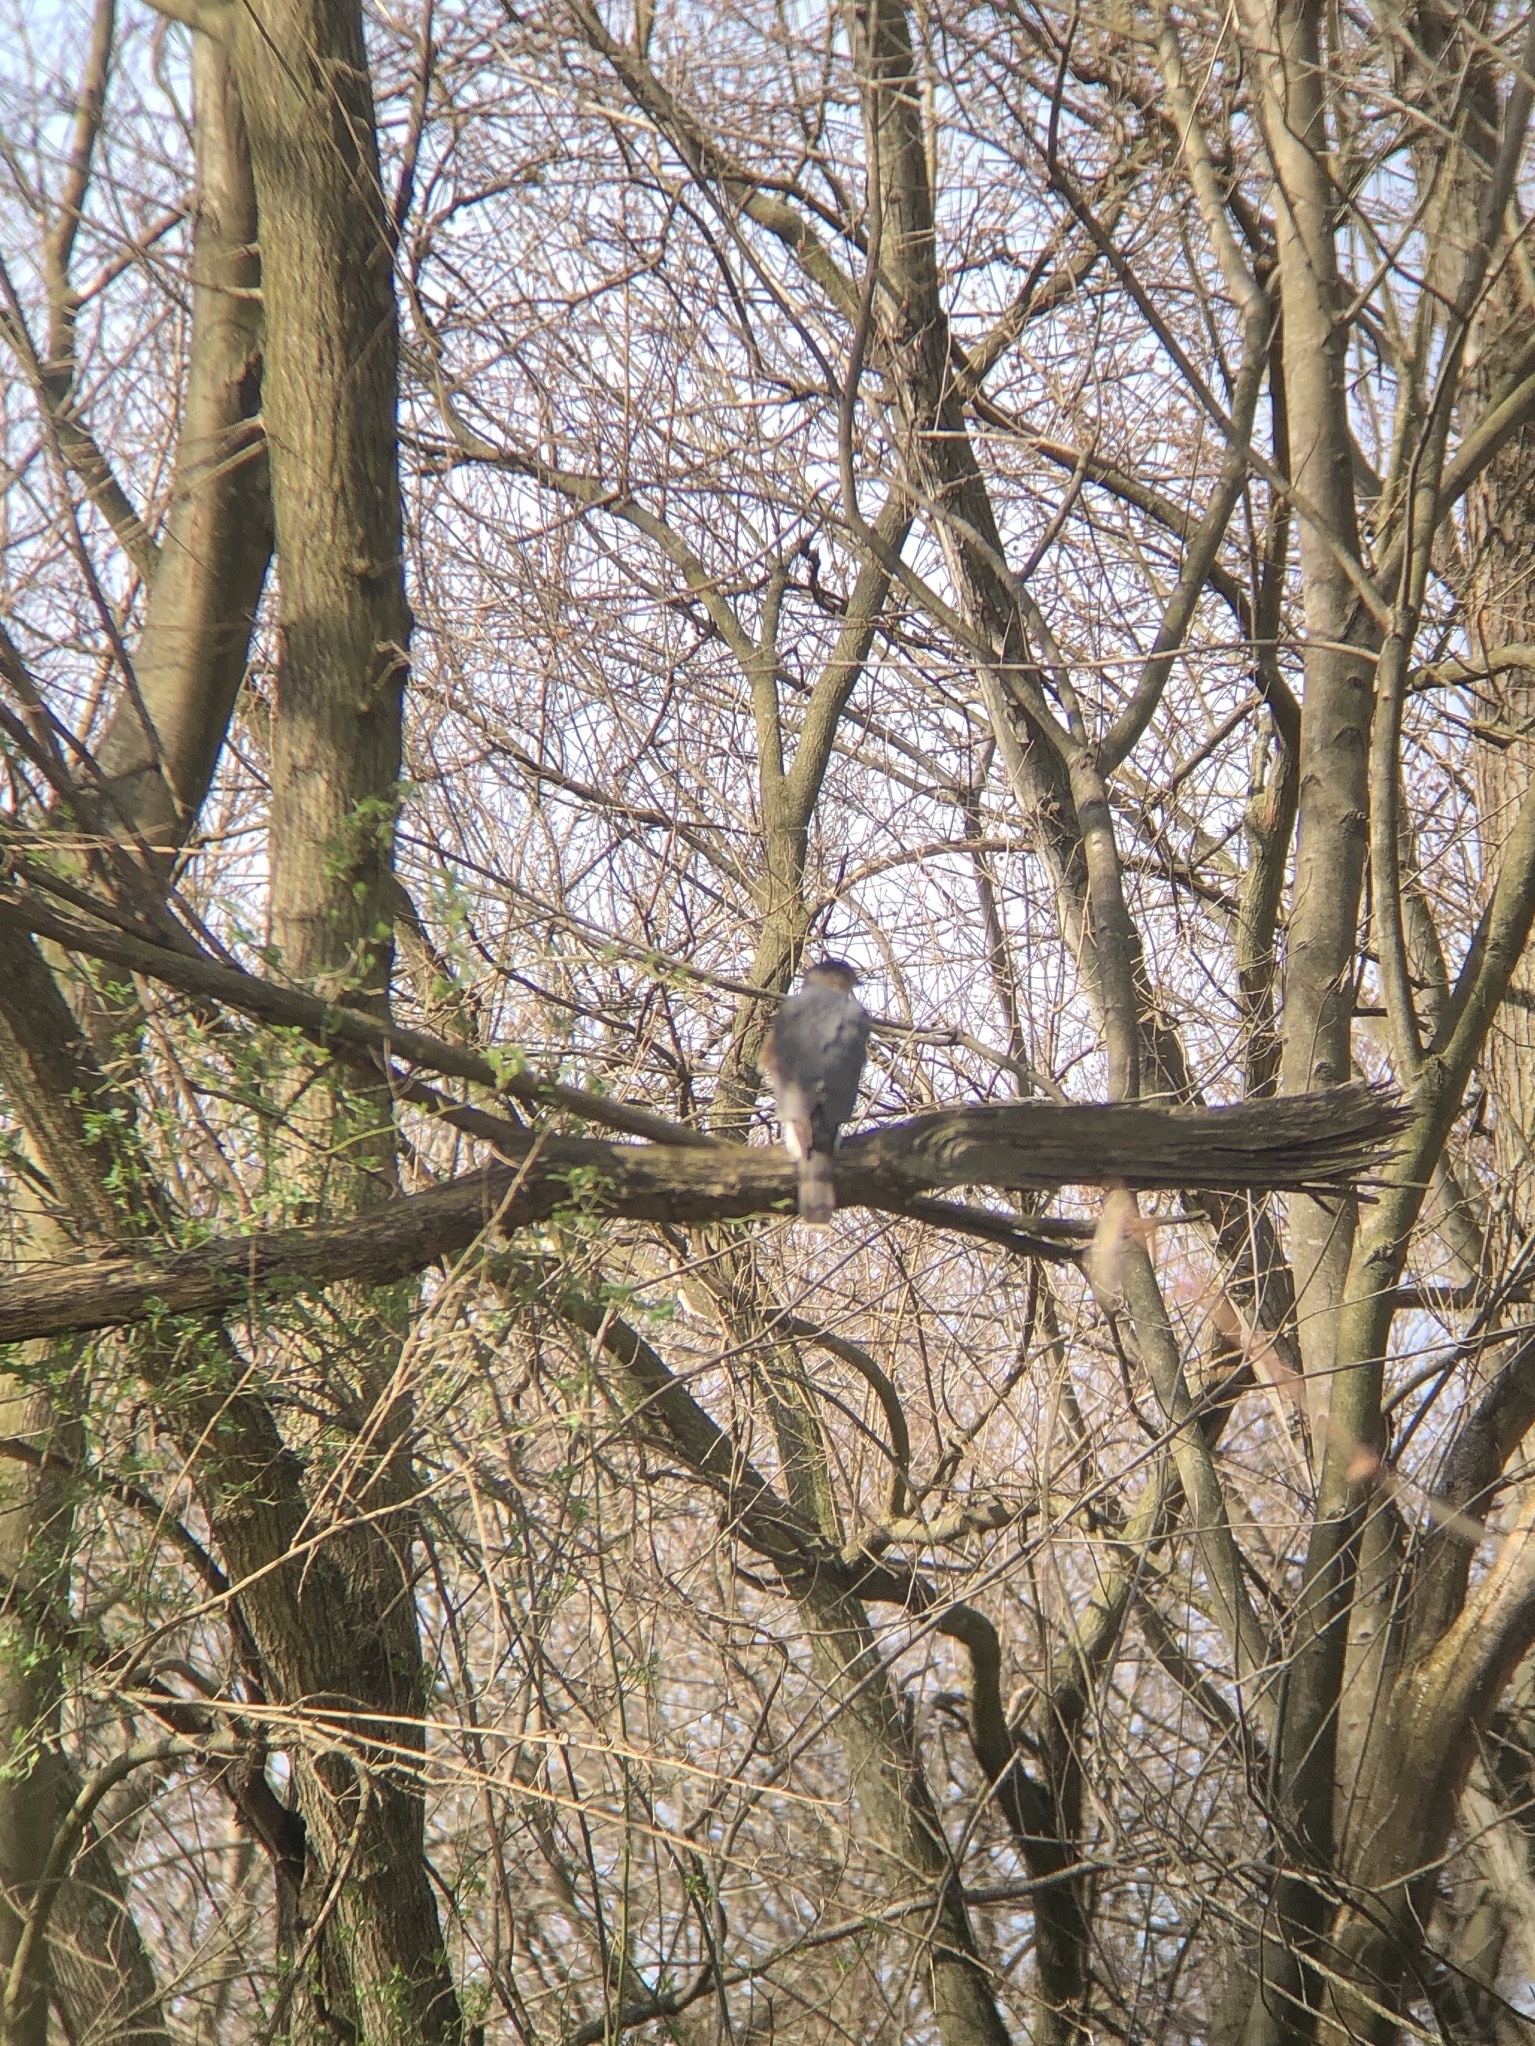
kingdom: Animalia
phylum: Chordata
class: Aves
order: Accipitriformes
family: Accipitridae
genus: Accipiter
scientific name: Accipiter cooperii
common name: Cooper's hawk
